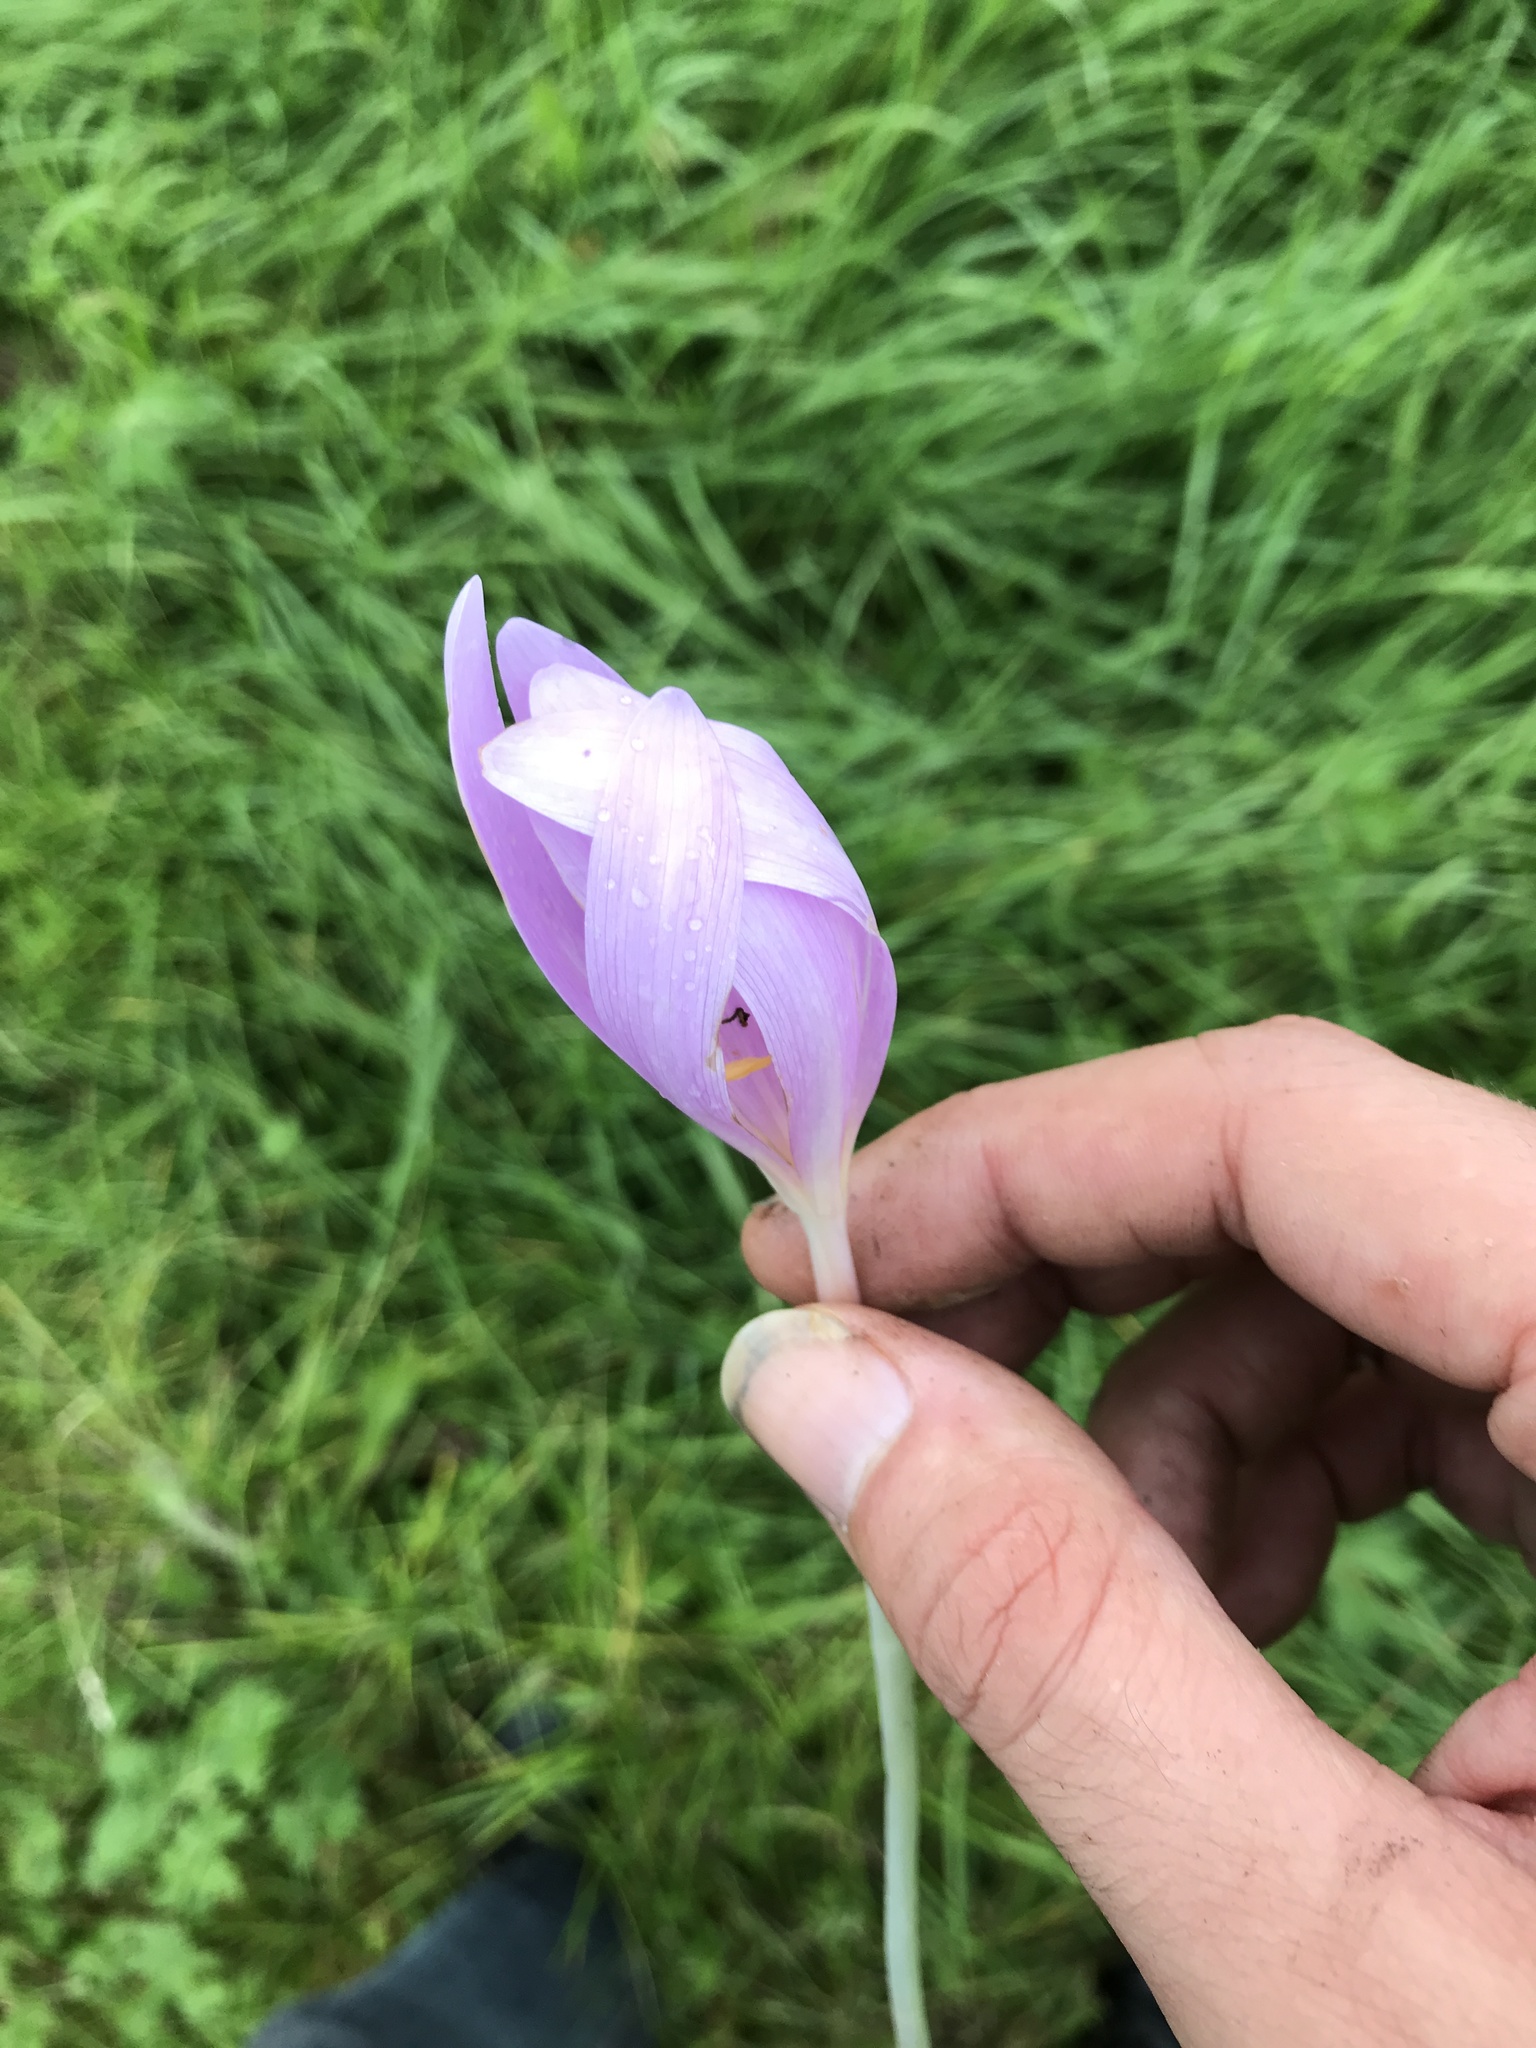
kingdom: Plantae
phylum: Tracheophyta
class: Liliopsida
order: Liliales
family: Colchicaceae
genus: Colchicum
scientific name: Colchicum autumnale
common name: Autumn crocus
